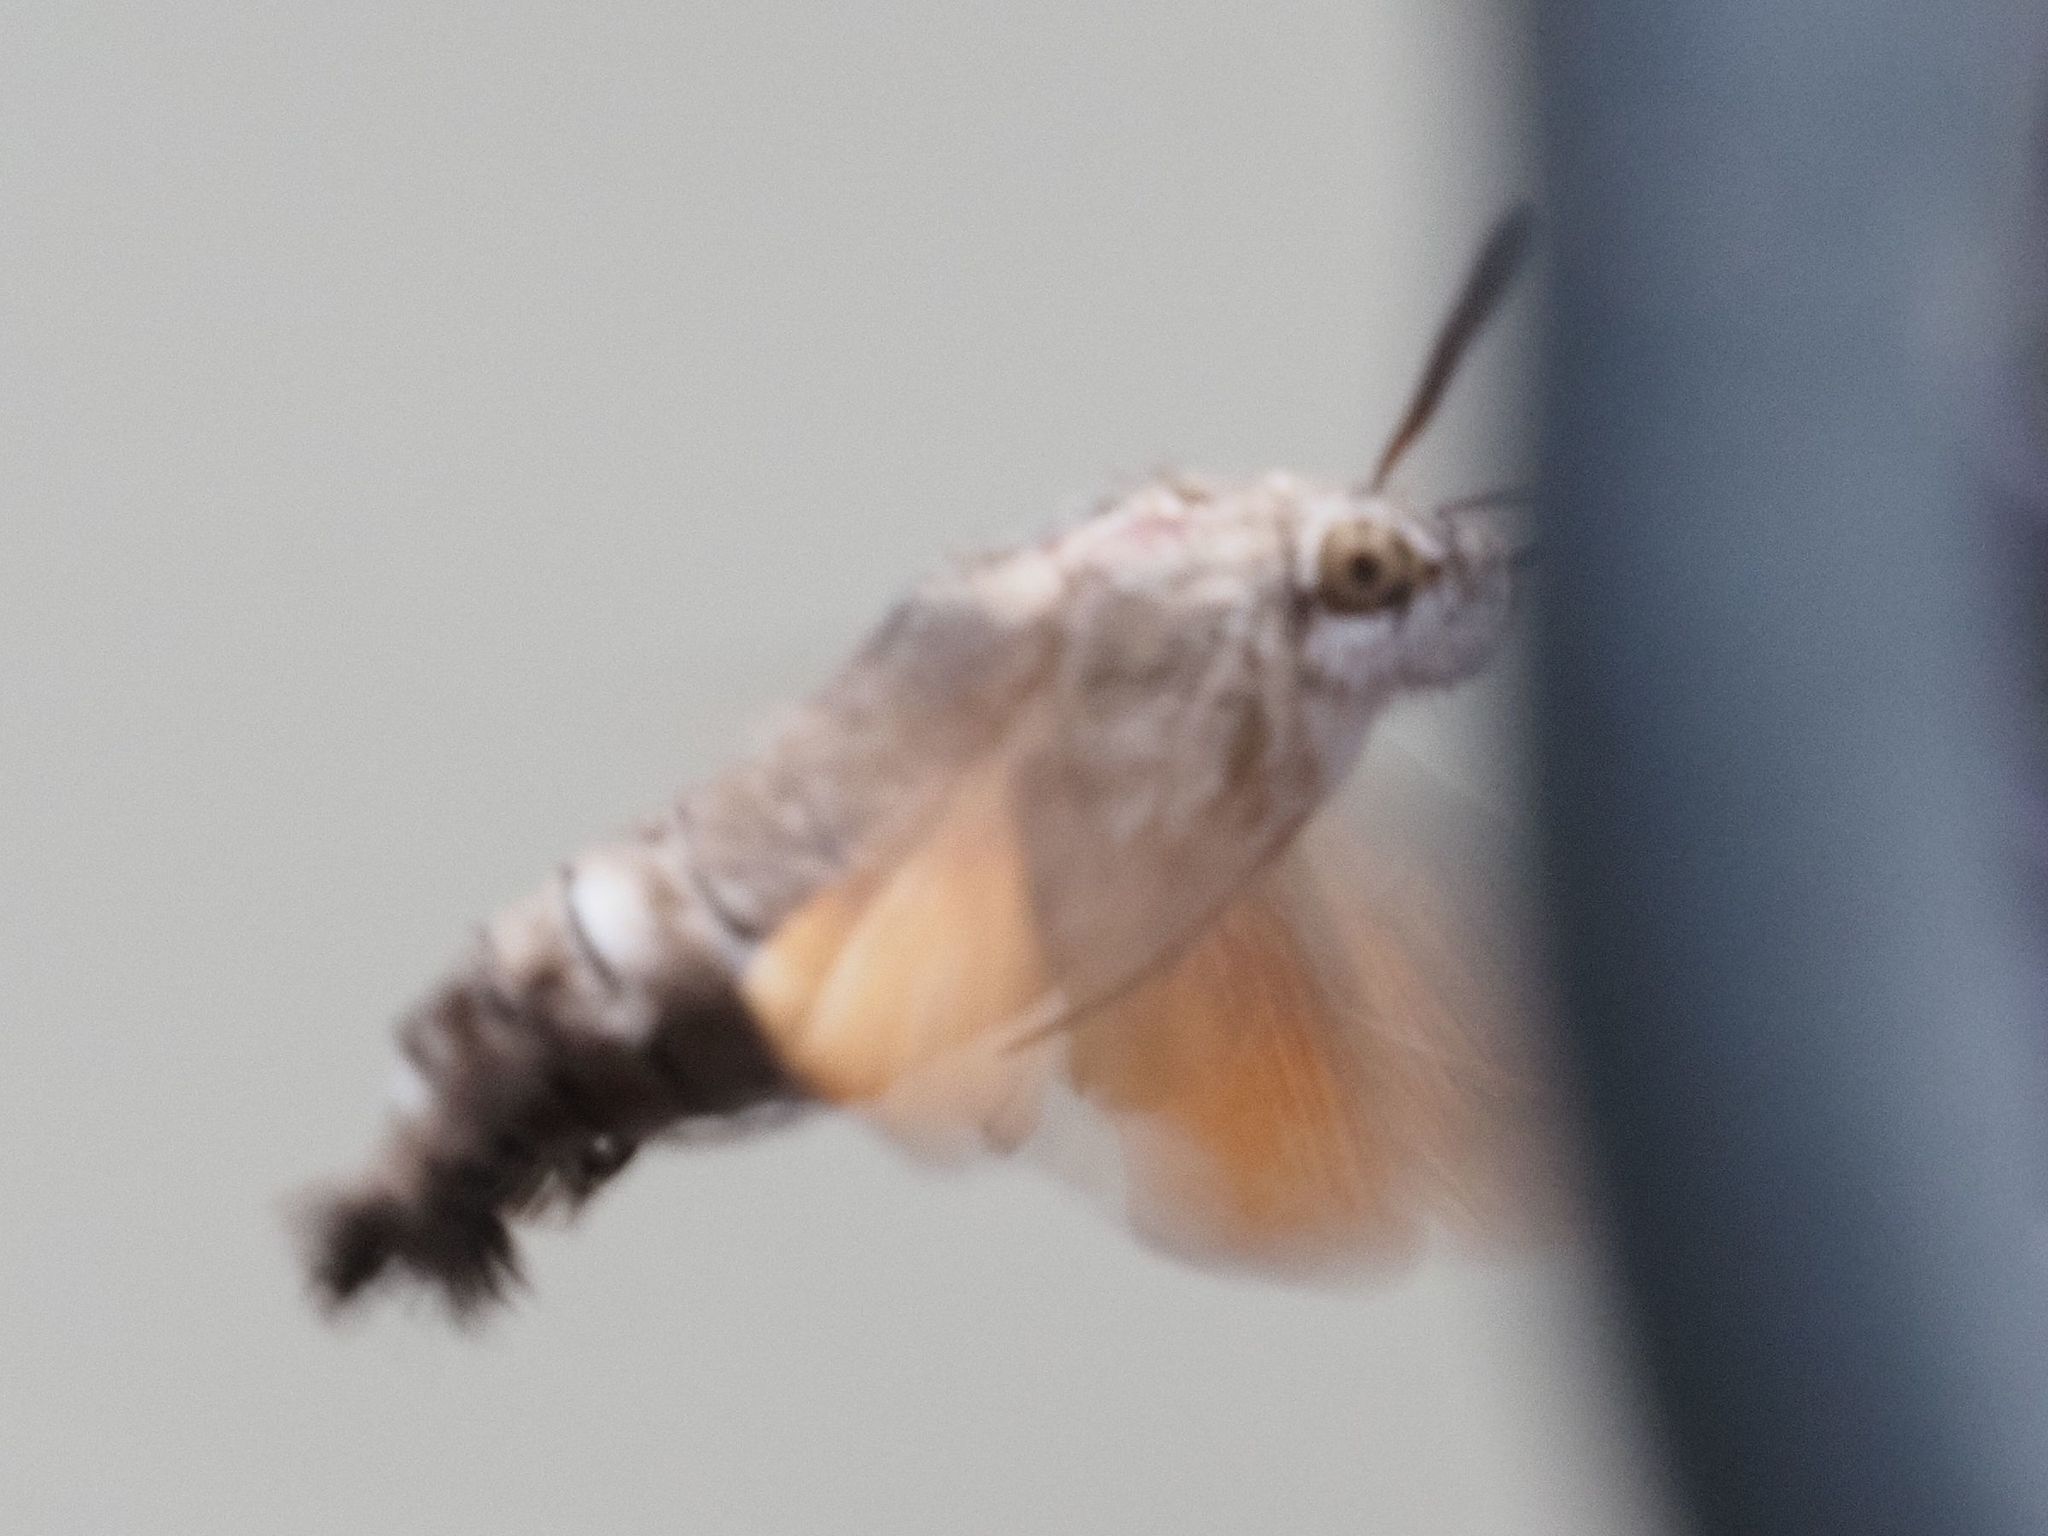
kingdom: Animalia
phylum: Arthropoda
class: Insecta
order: Lepidoptera
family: Sphingidae
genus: Macroglossum
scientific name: Macroglossum stellatarum
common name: Humming-bird hawk-moth
